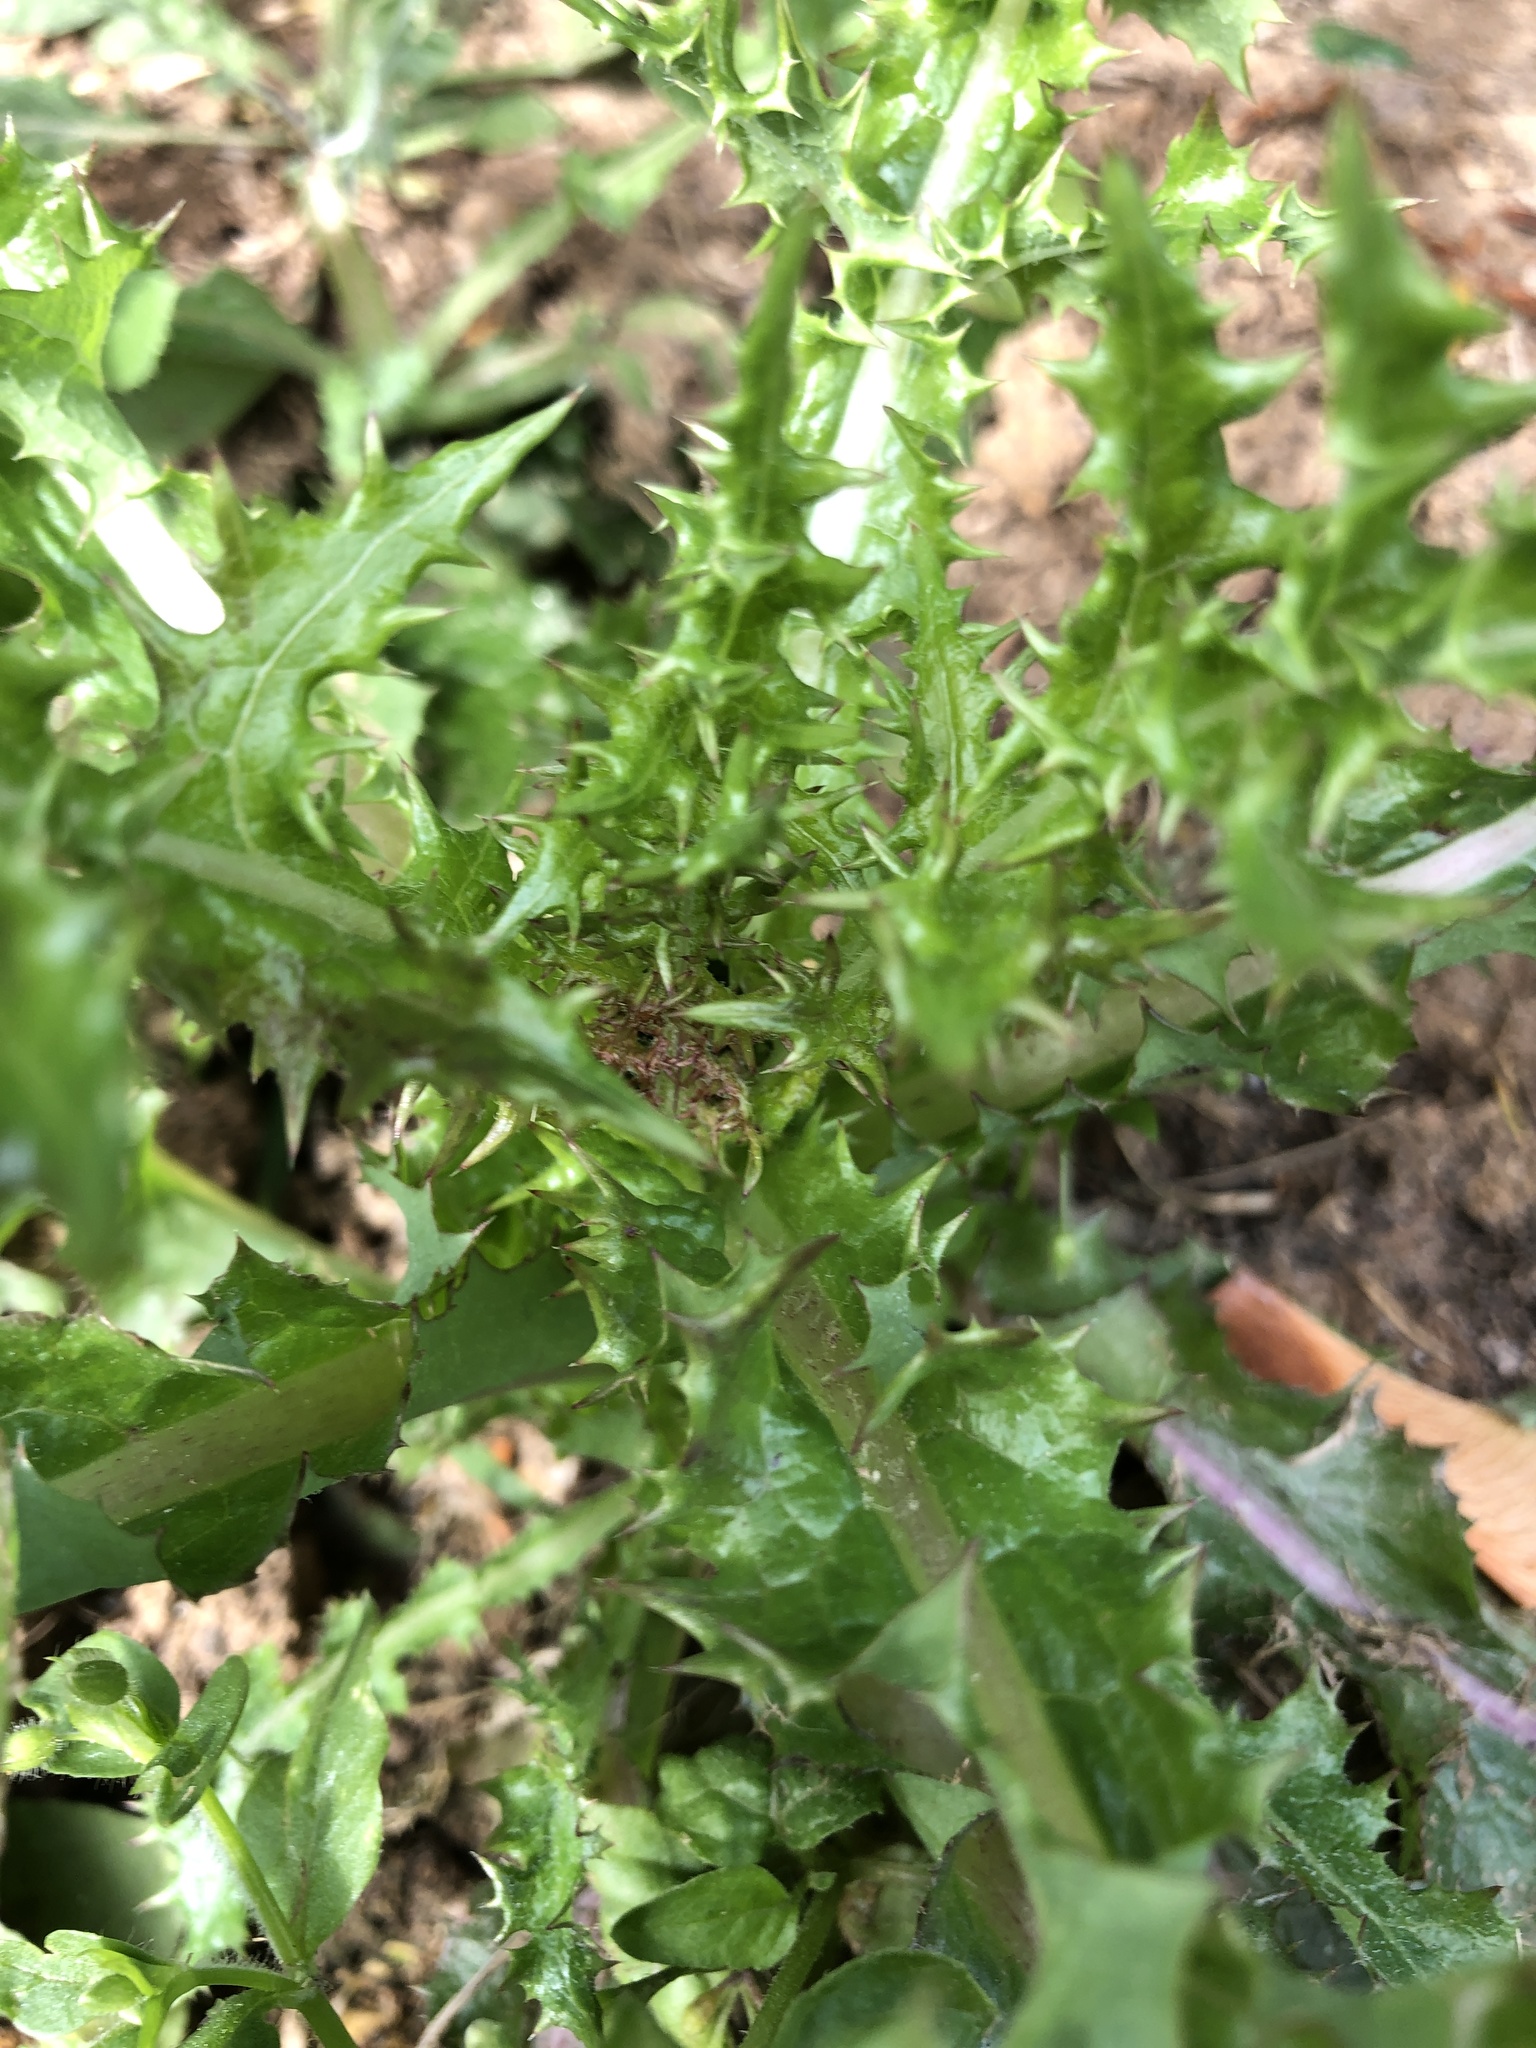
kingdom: Plantae
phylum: Tracheophyta
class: Magnoliopsida
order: Asterales
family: Asteraceae
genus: Sonchus
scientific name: Sonchus asper
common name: Prickly sow-thistle
